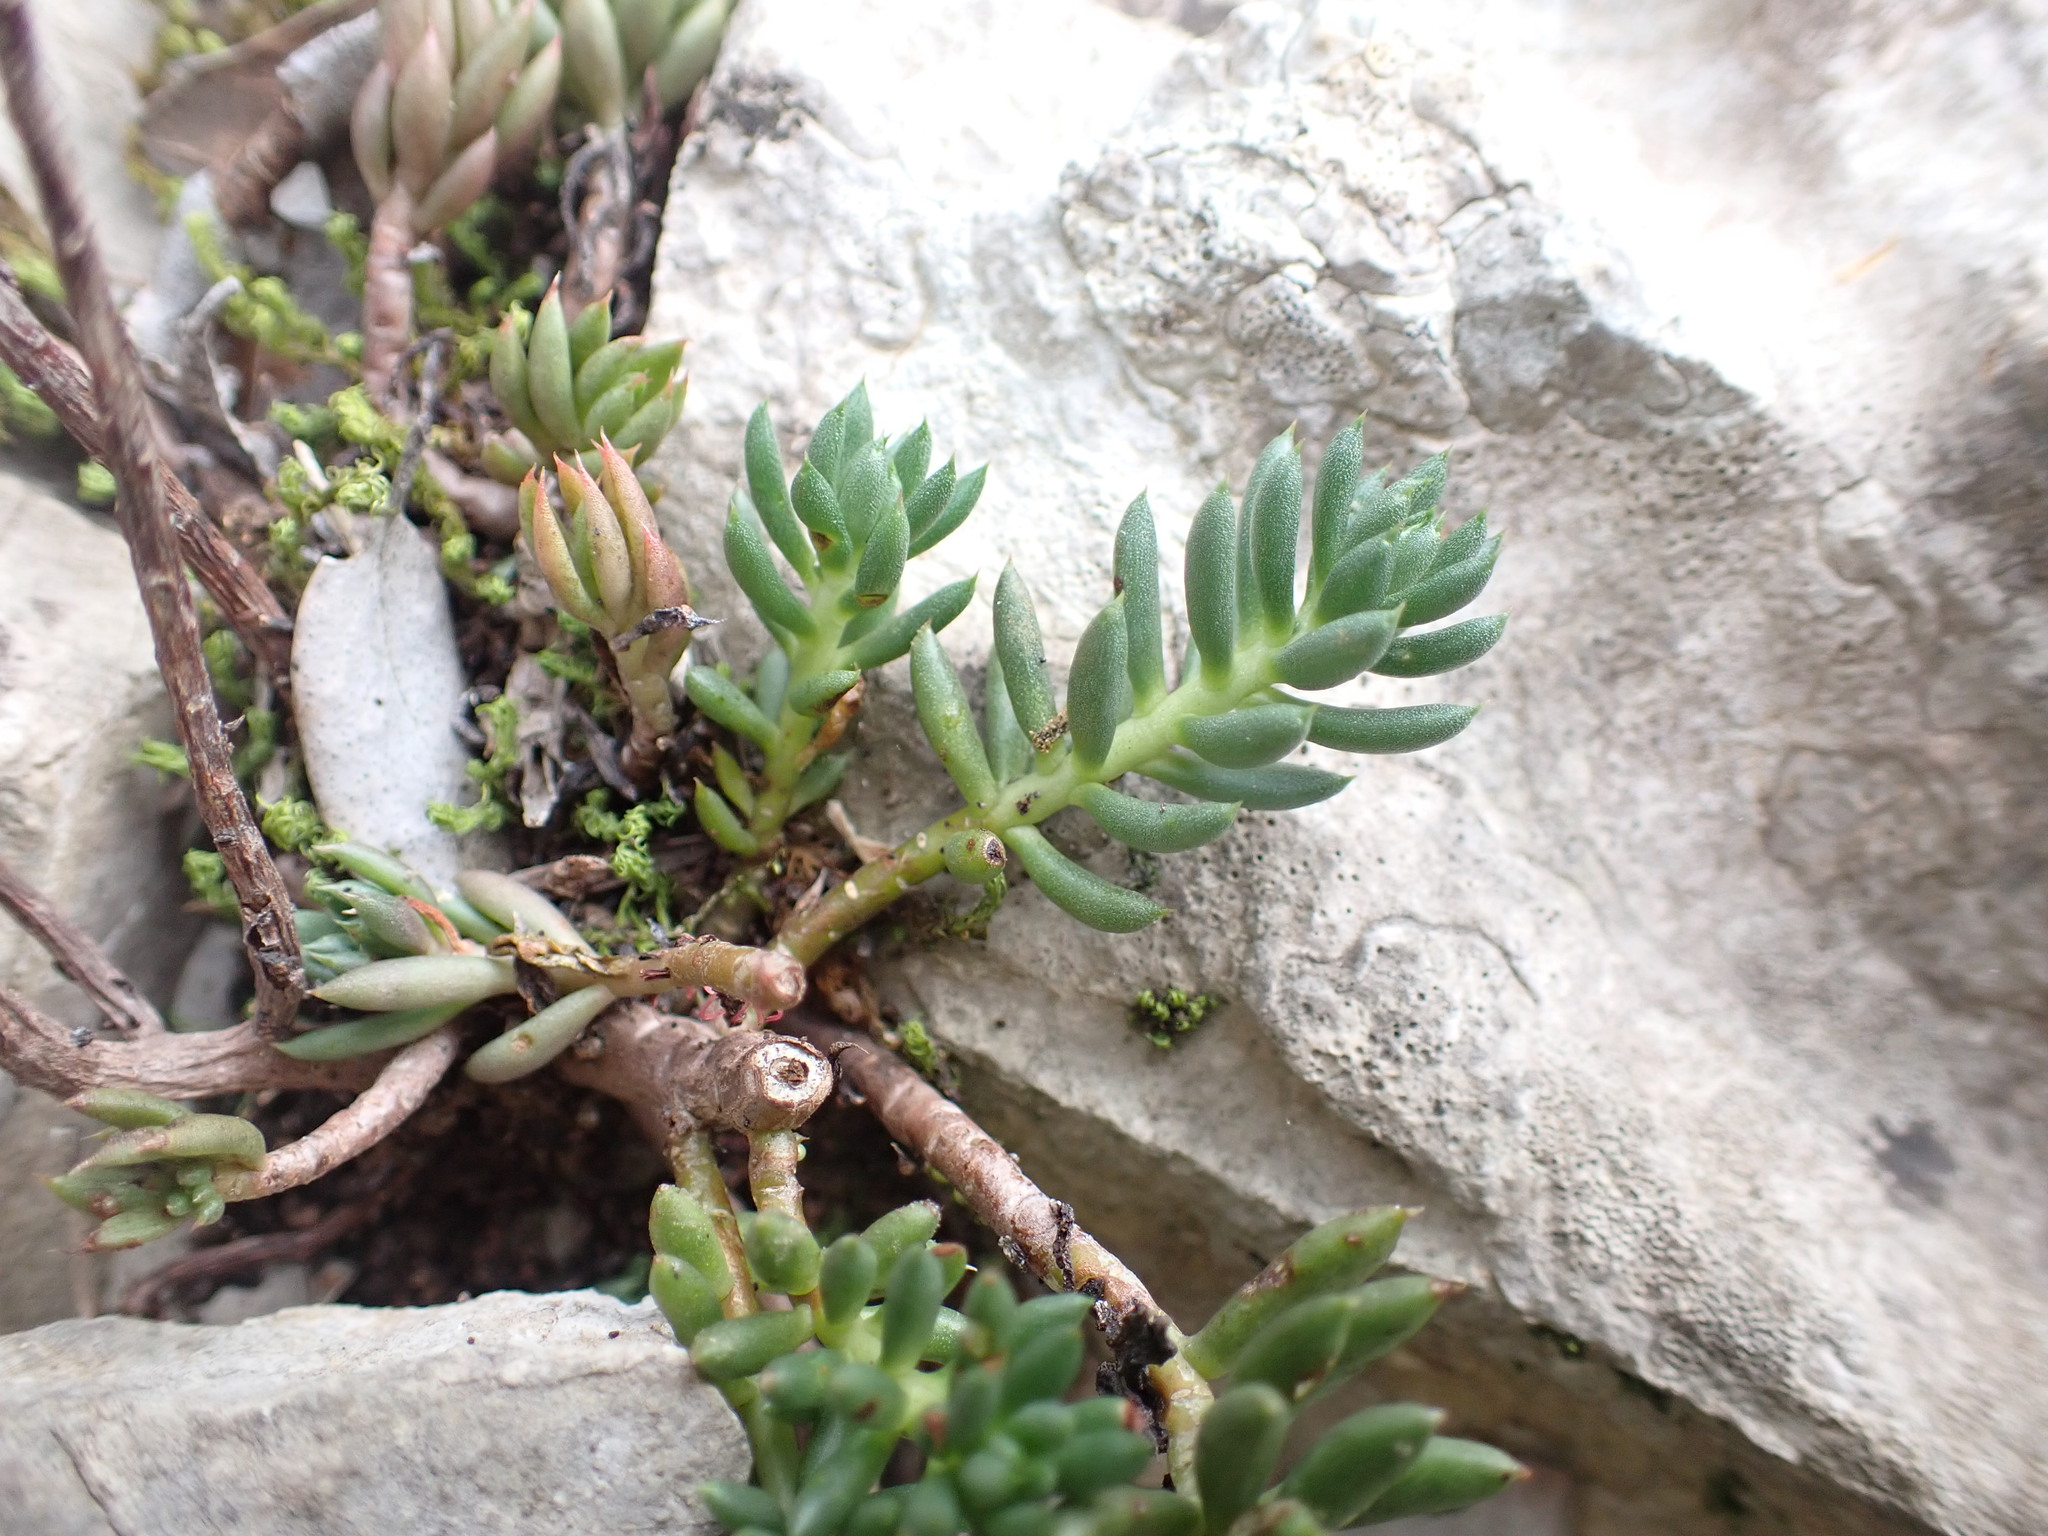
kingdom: Plantae
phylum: Tracheophyta
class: Magnoliopsida
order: Saxifragales
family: Crassulaceae
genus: Petrosedum
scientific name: Petrosedum sediforme
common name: Pale stonecrop
